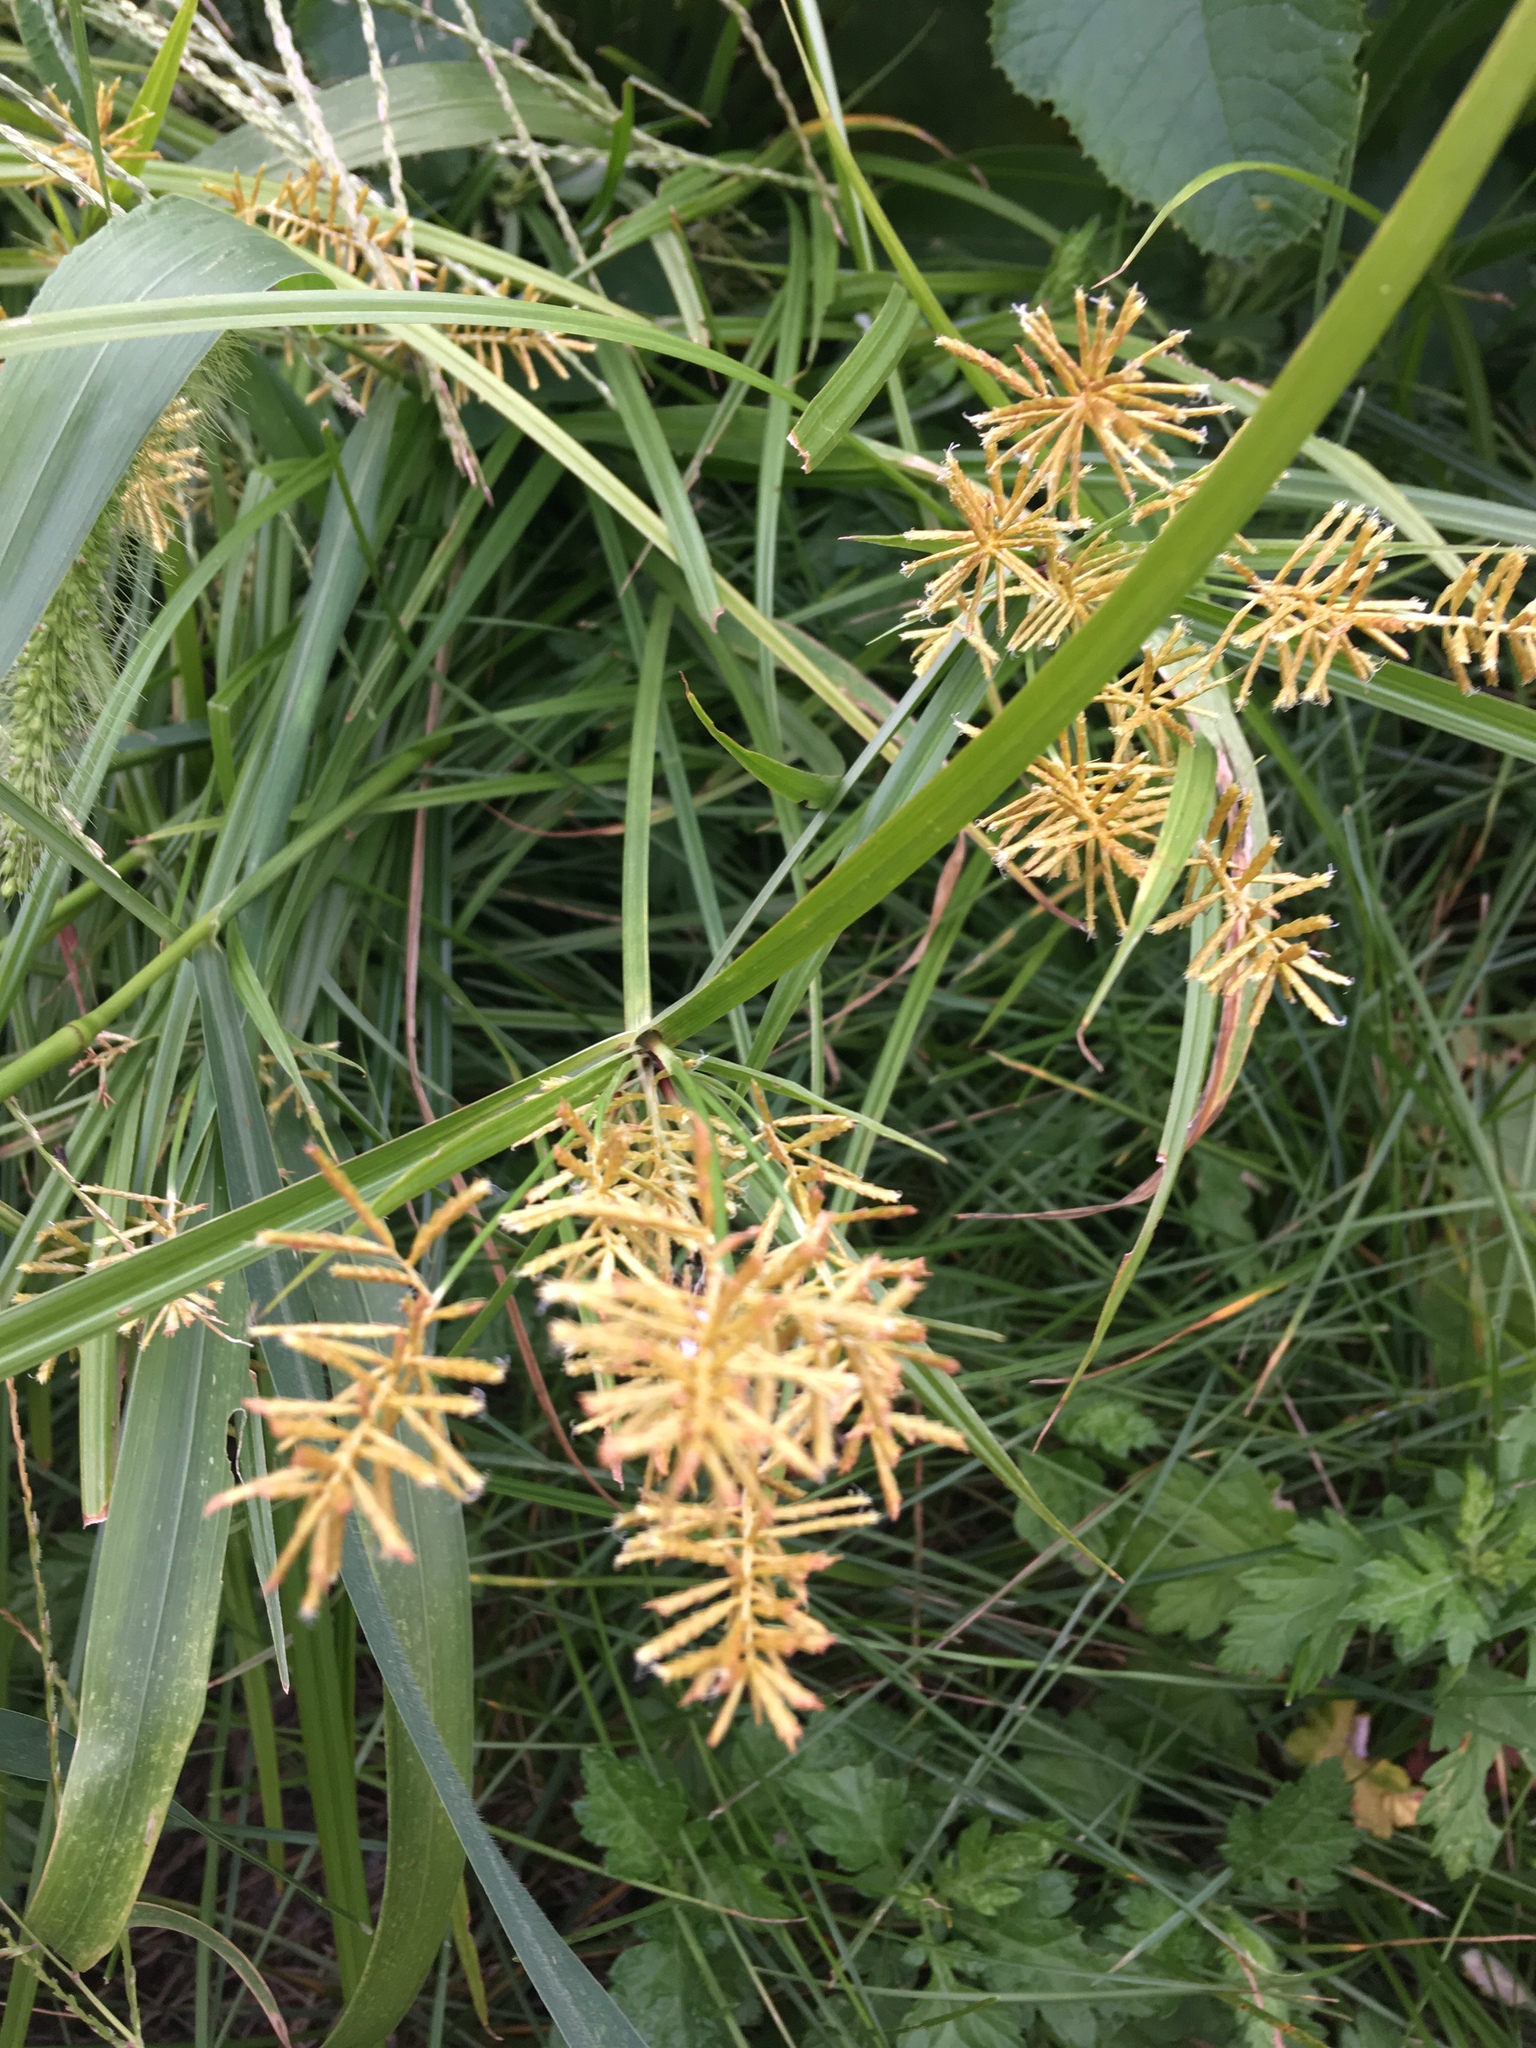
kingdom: Plantae
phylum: Tracheophyta
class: Liliopsida
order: Poales
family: Cyperaceae
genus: Cyperus
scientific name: Cyperus esculentus
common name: Yellow nutsedge
